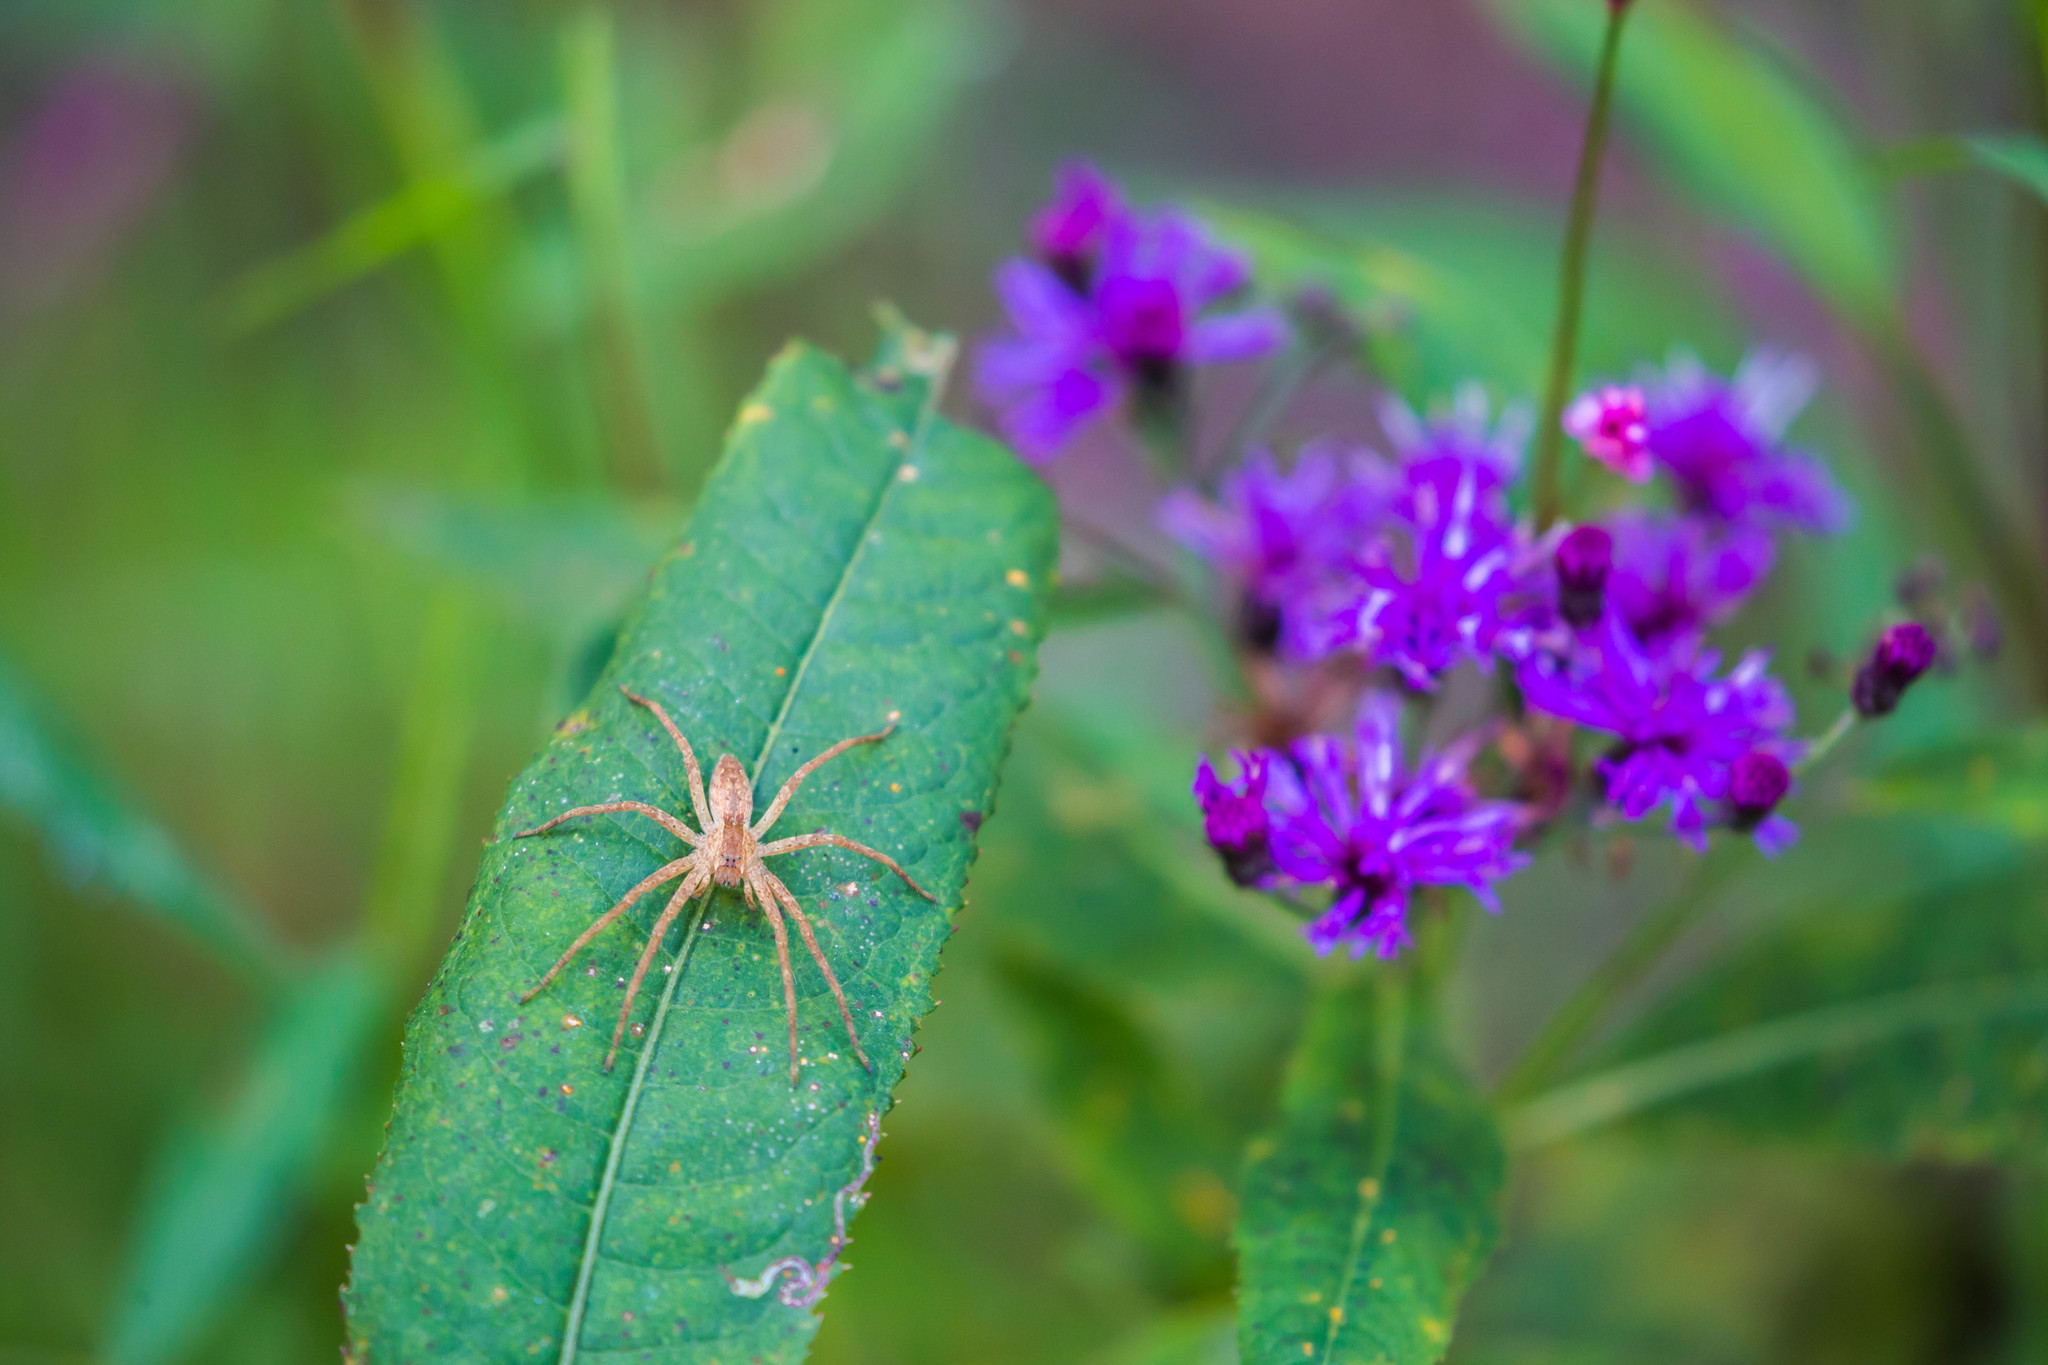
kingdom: Animalia
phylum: Arthropoda
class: Arachnida
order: Araneae
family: Pisauridae
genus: Pisaurina
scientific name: Pisaurina mira
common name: American nursery web spider
